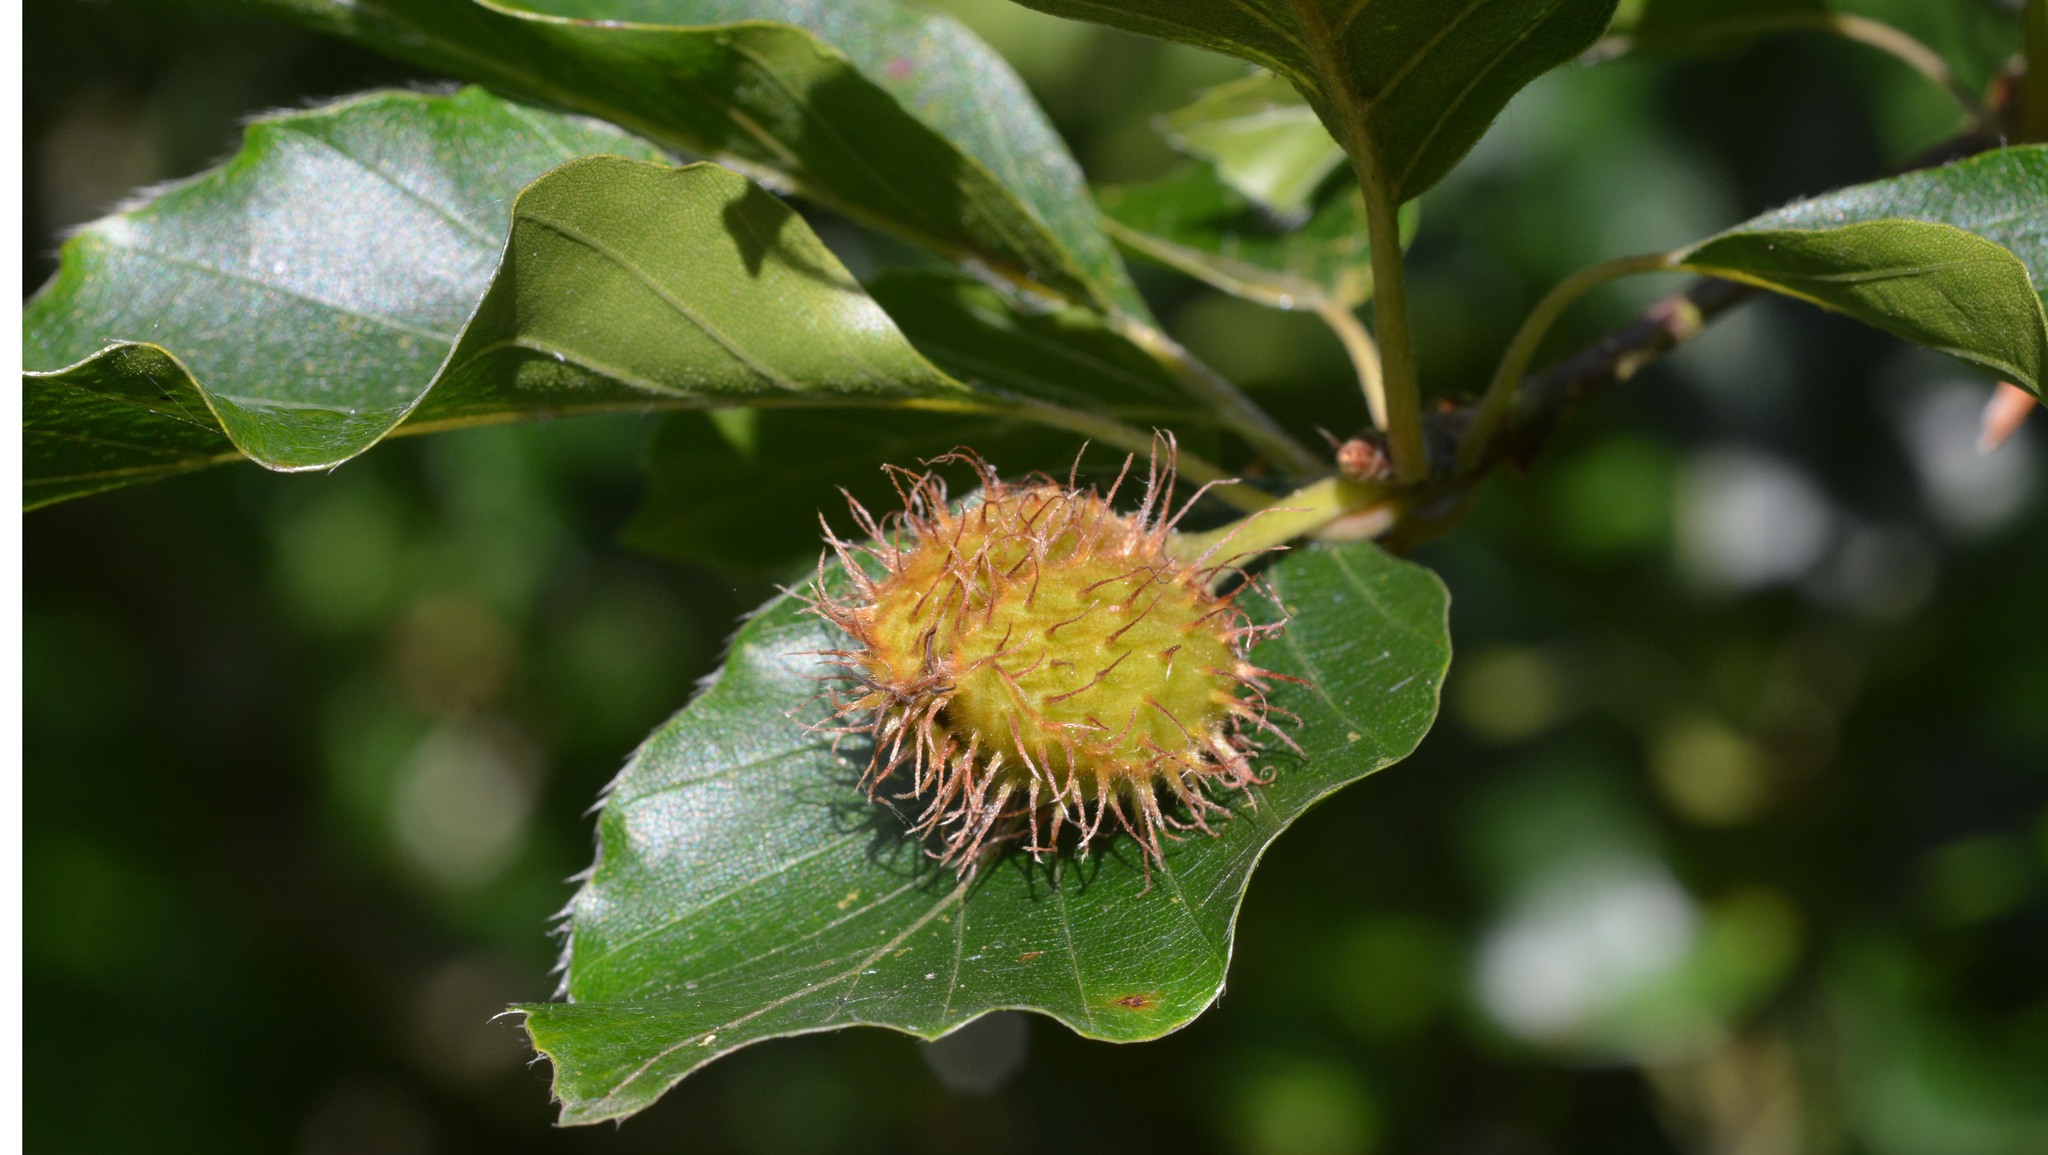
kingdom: Plantae
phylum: Tracheophyta
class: Magnoliopsida
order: Fagales
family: Fagaceae
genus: Fagus
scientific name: Fagus sylvatica
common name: Beech
